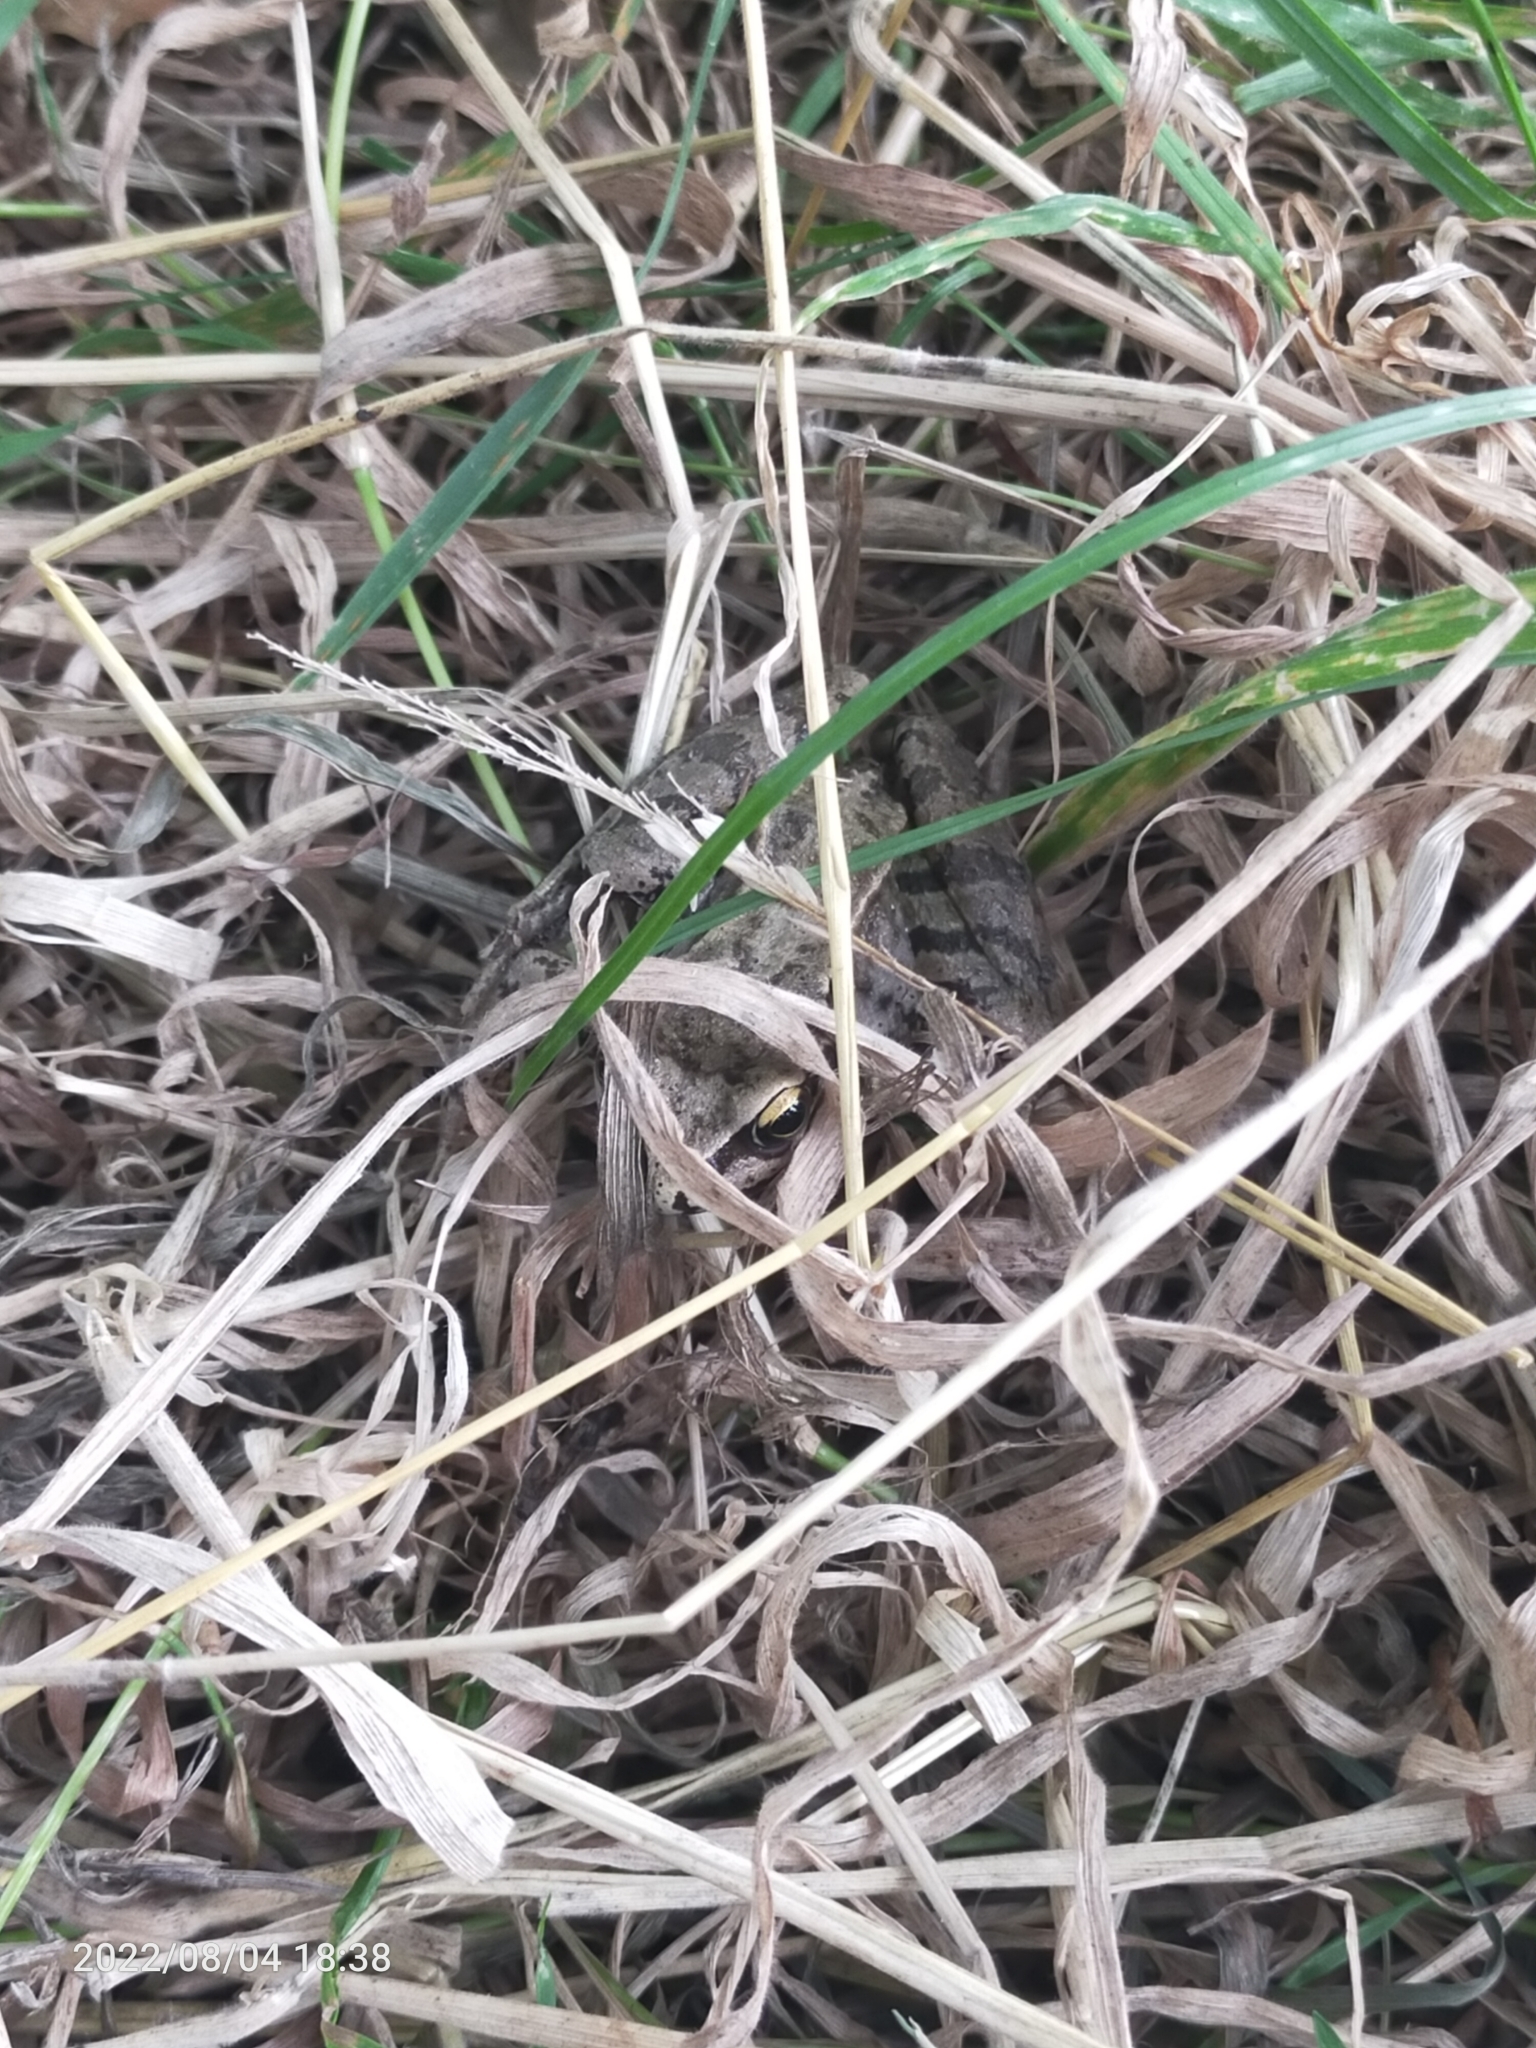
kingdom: Animalia
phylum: Chordata
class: Amphibia
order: Anura
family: Ranidae
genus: Rana
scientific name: Rana temporaria
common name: Common frog
